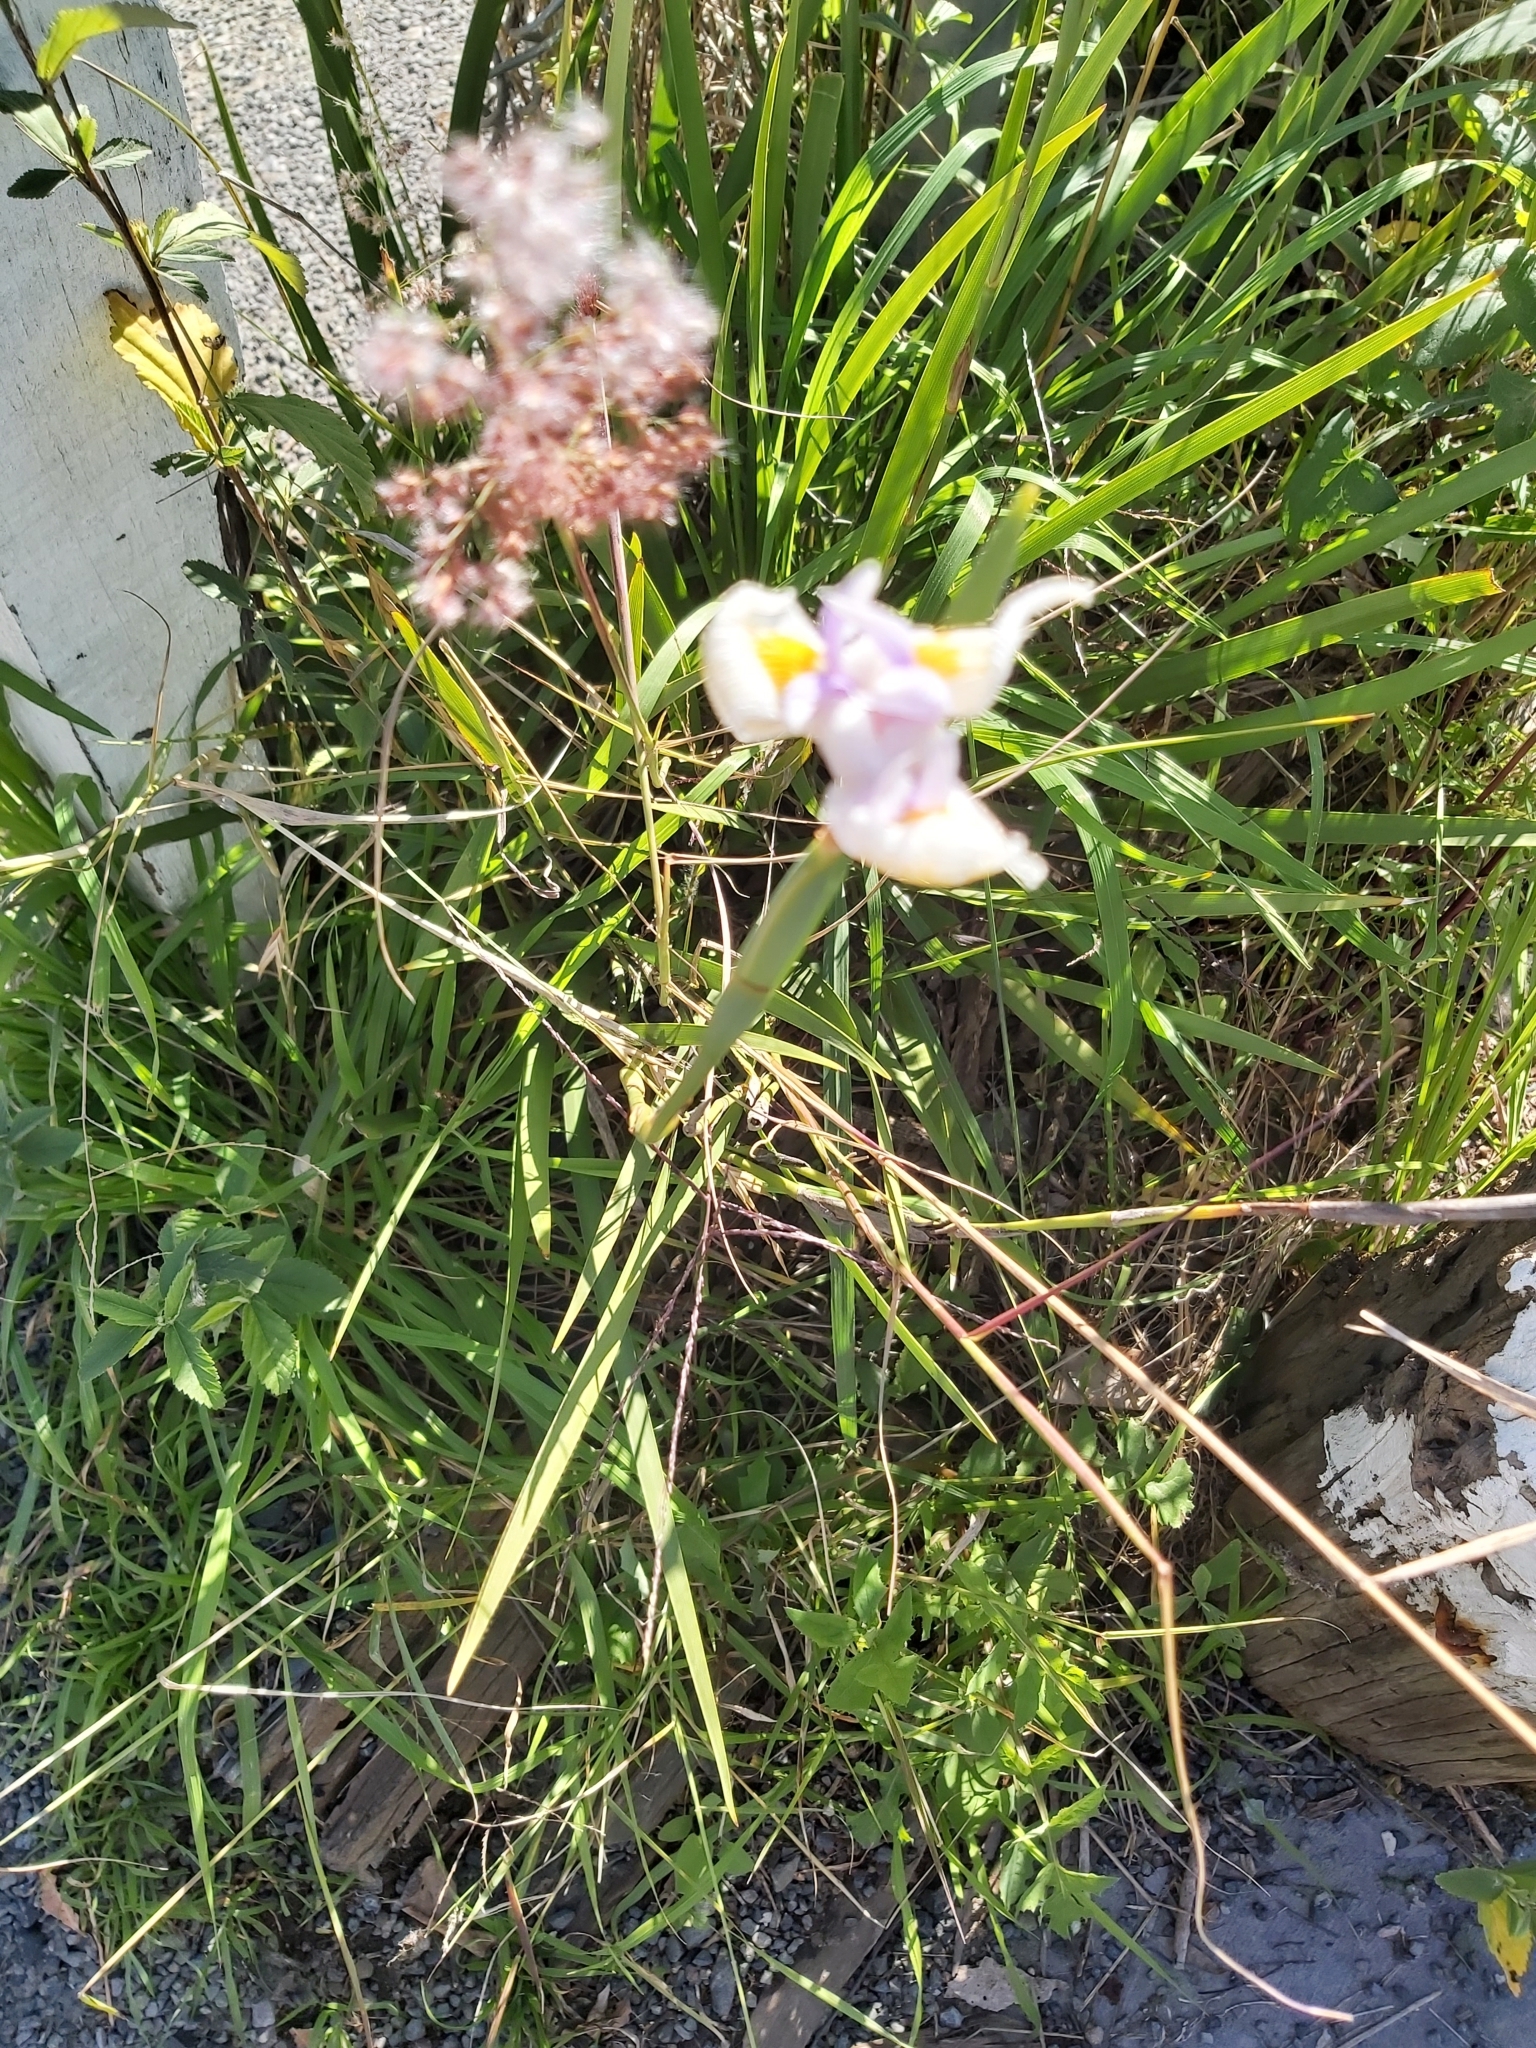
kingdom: Plantae
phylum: Tracheophyta
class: Liliopsida
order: Asparagales
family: Iridaceae
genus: Dietes
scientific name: Dietes grandiflora
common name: Wild iris
